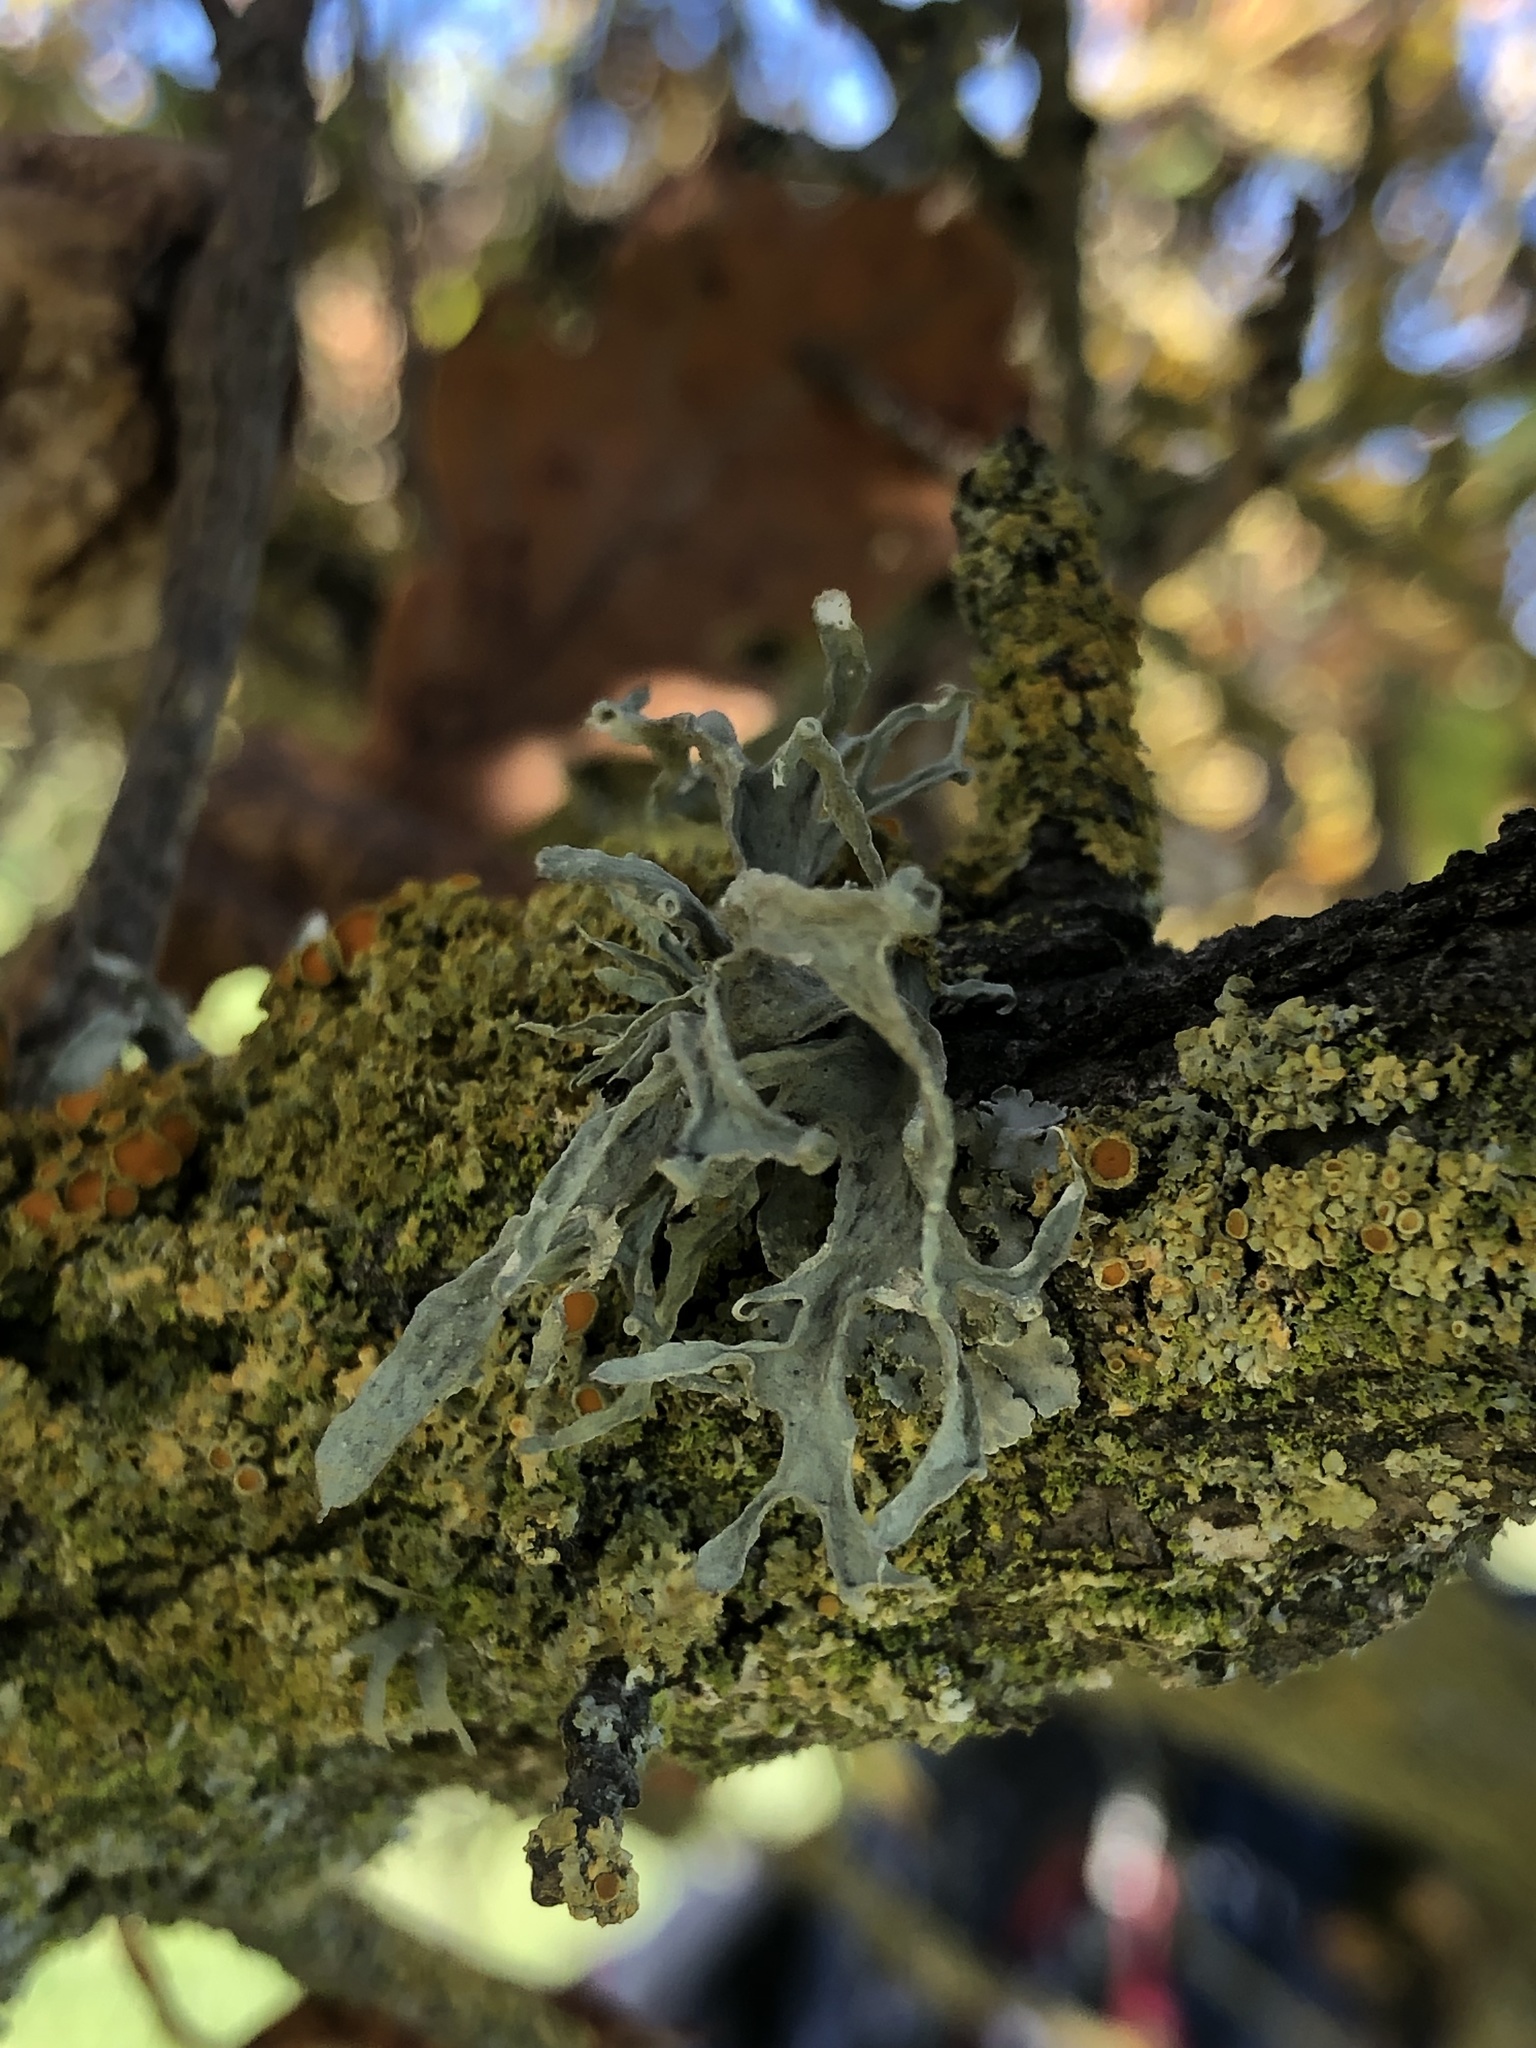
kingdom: Fungi
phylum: Ascomycota
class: Lecanoromycetes
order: Lecanorales
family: Ramalinaceae
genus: Ramalina
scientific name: Ramalina leptocarpha
